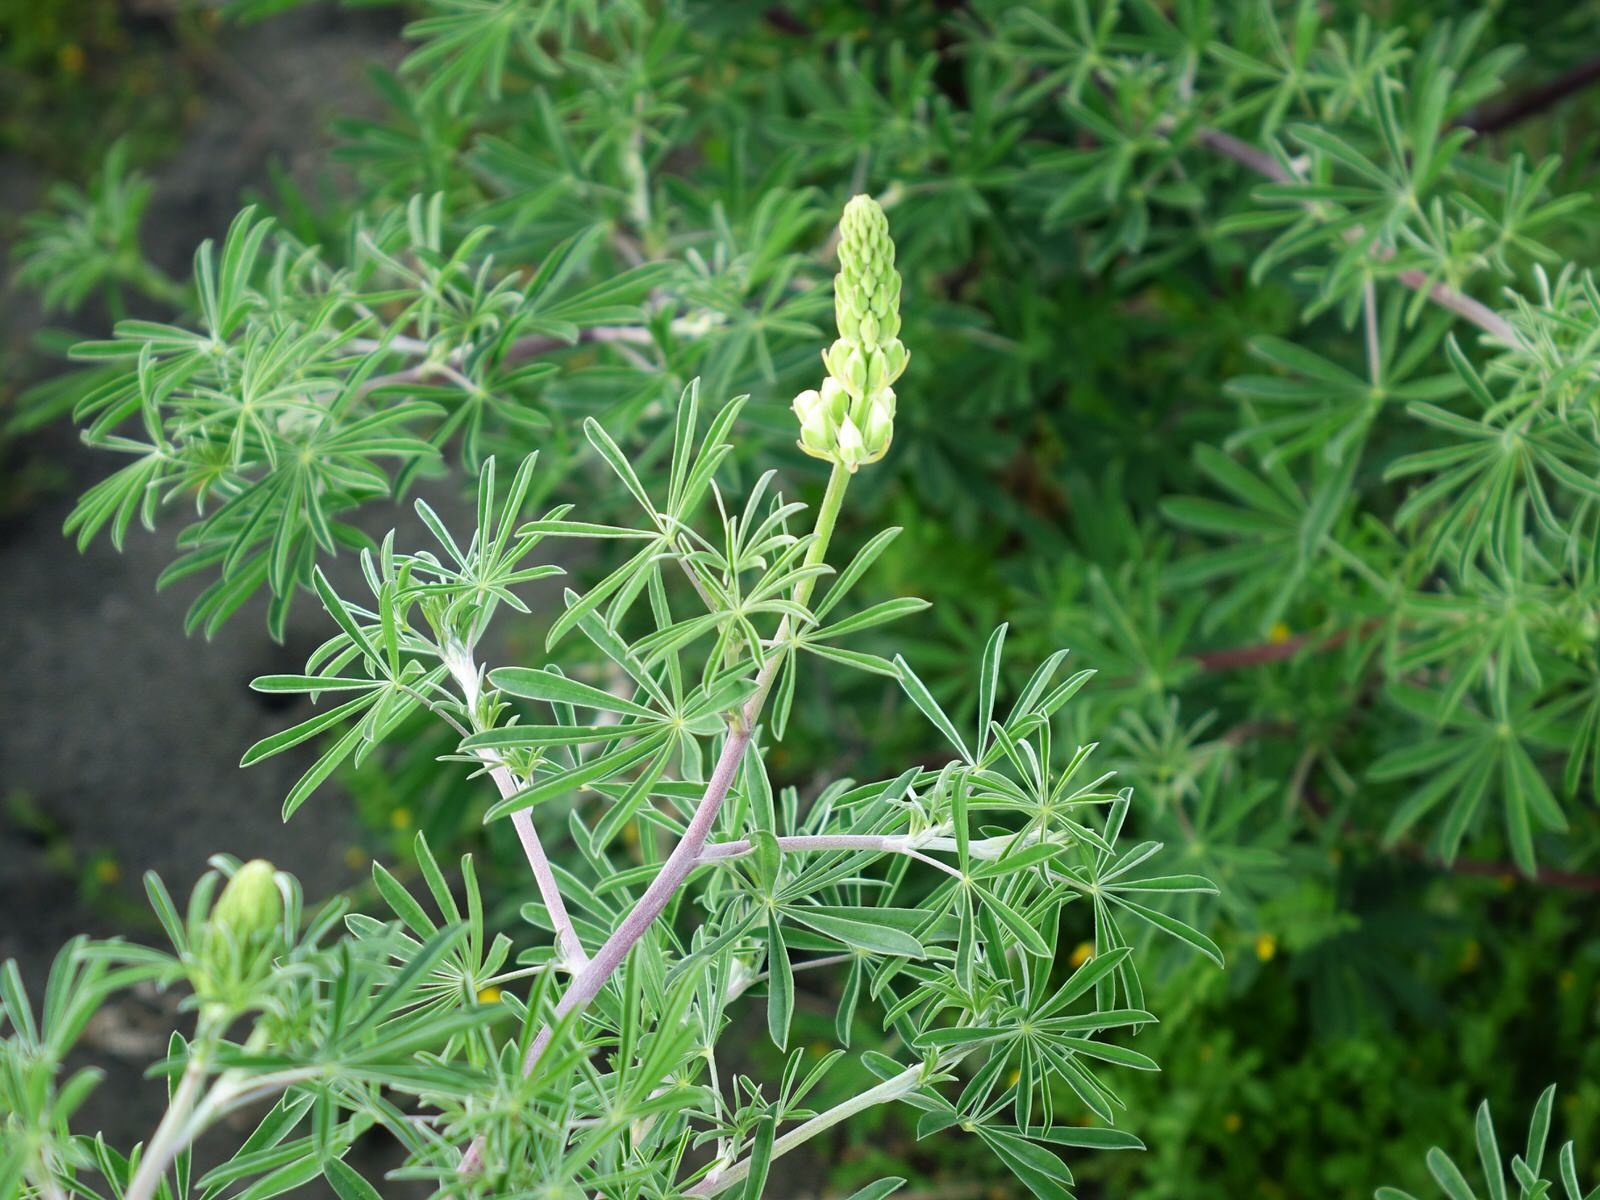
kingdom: Plantae
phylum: Tracheophyta
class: Magnoliopsida
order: Fabales
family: Fabaceae
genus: Lupinus
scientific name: Lupinus arboreus
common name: Yellow bush lupine
